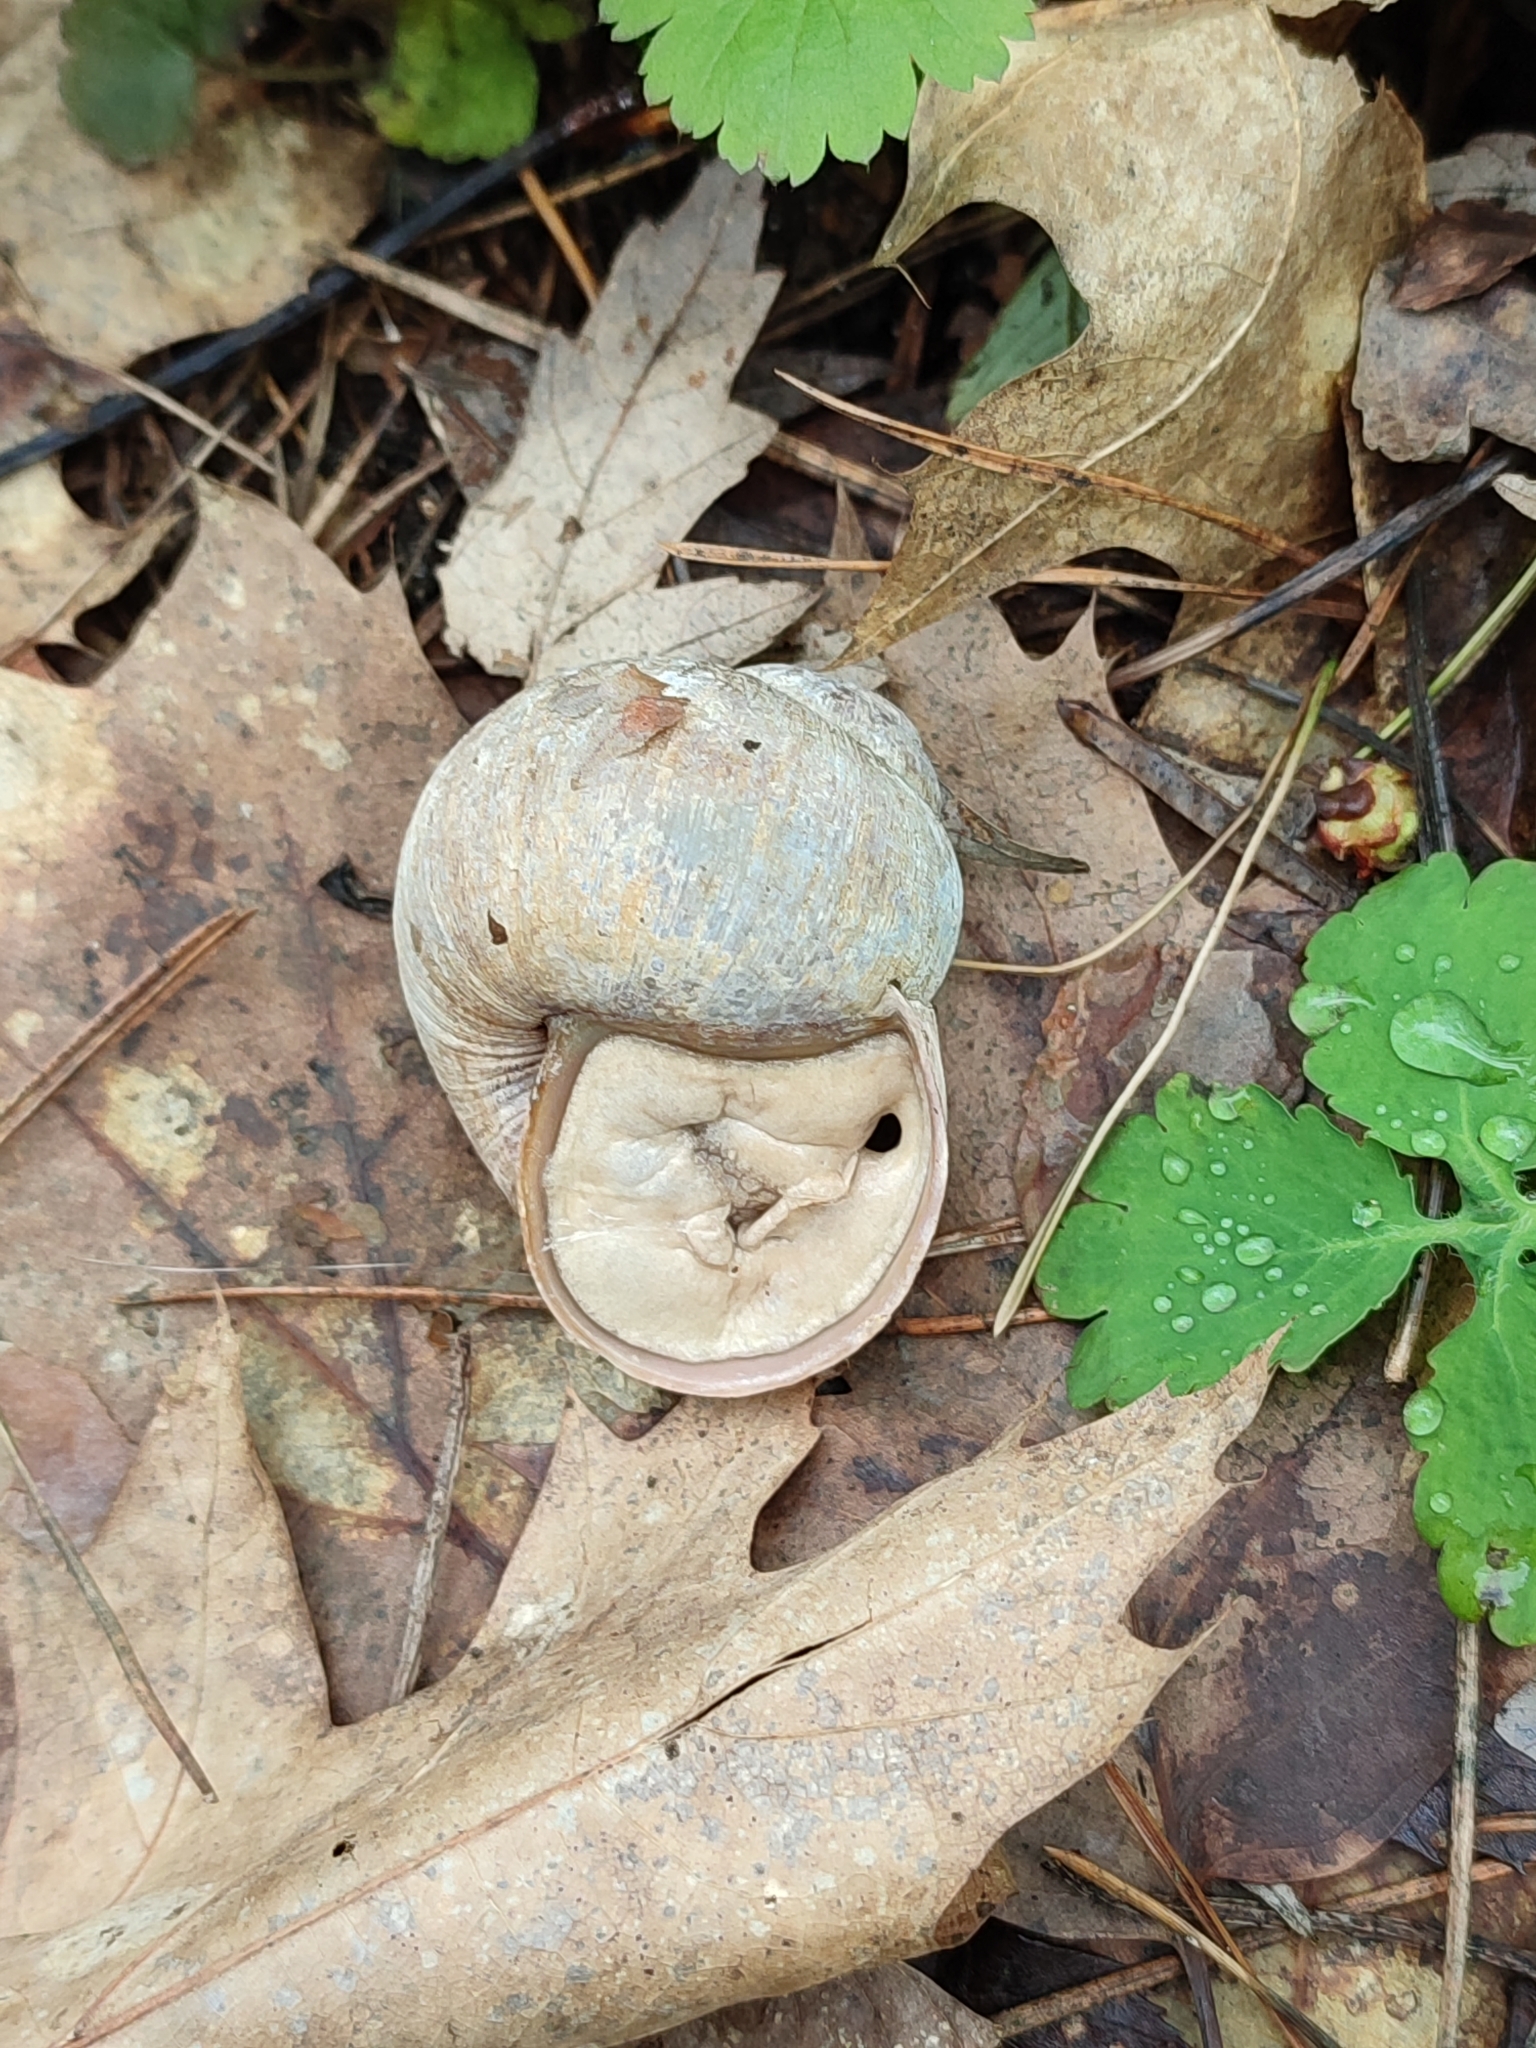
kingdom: Animalia
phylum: Mollusca
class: Gastropoda
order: Stylommatophora
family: Helicidae
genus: Helix
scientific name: Helix pomatia
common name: Roman snail
